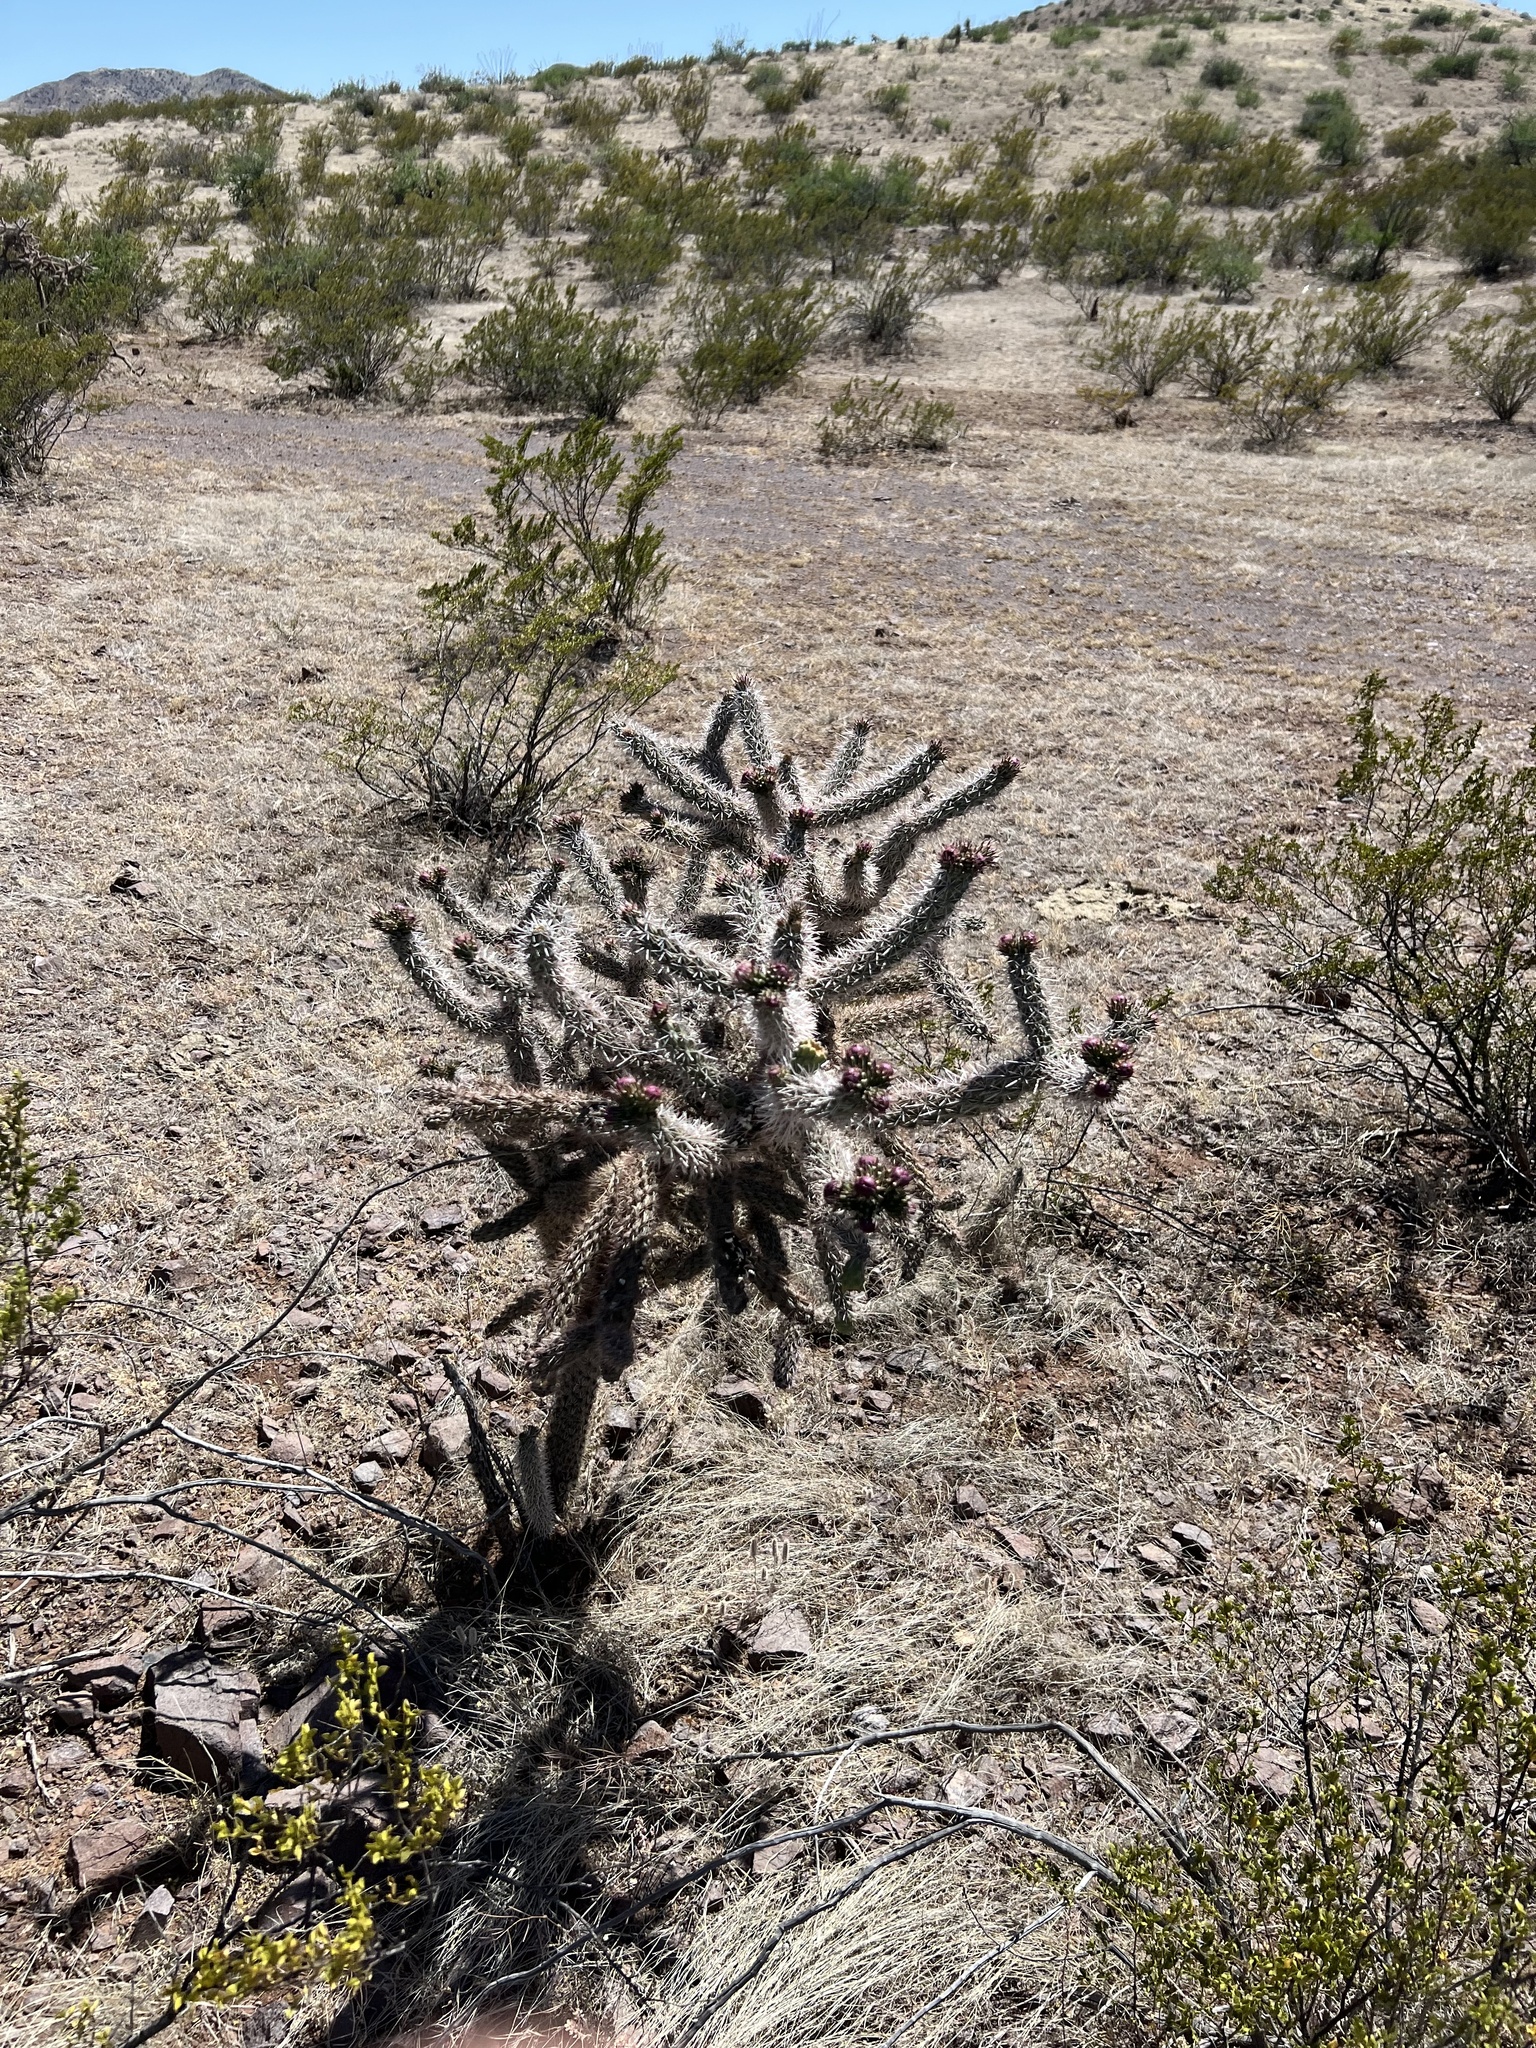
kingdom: Plantae
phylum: Tracheophyta
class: Magnoliopsida
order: Caryophyllales
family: Cactaceae
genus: Cylindropuntia
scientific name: Cylindropuntia imbricata
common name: Candelabrum cactus
